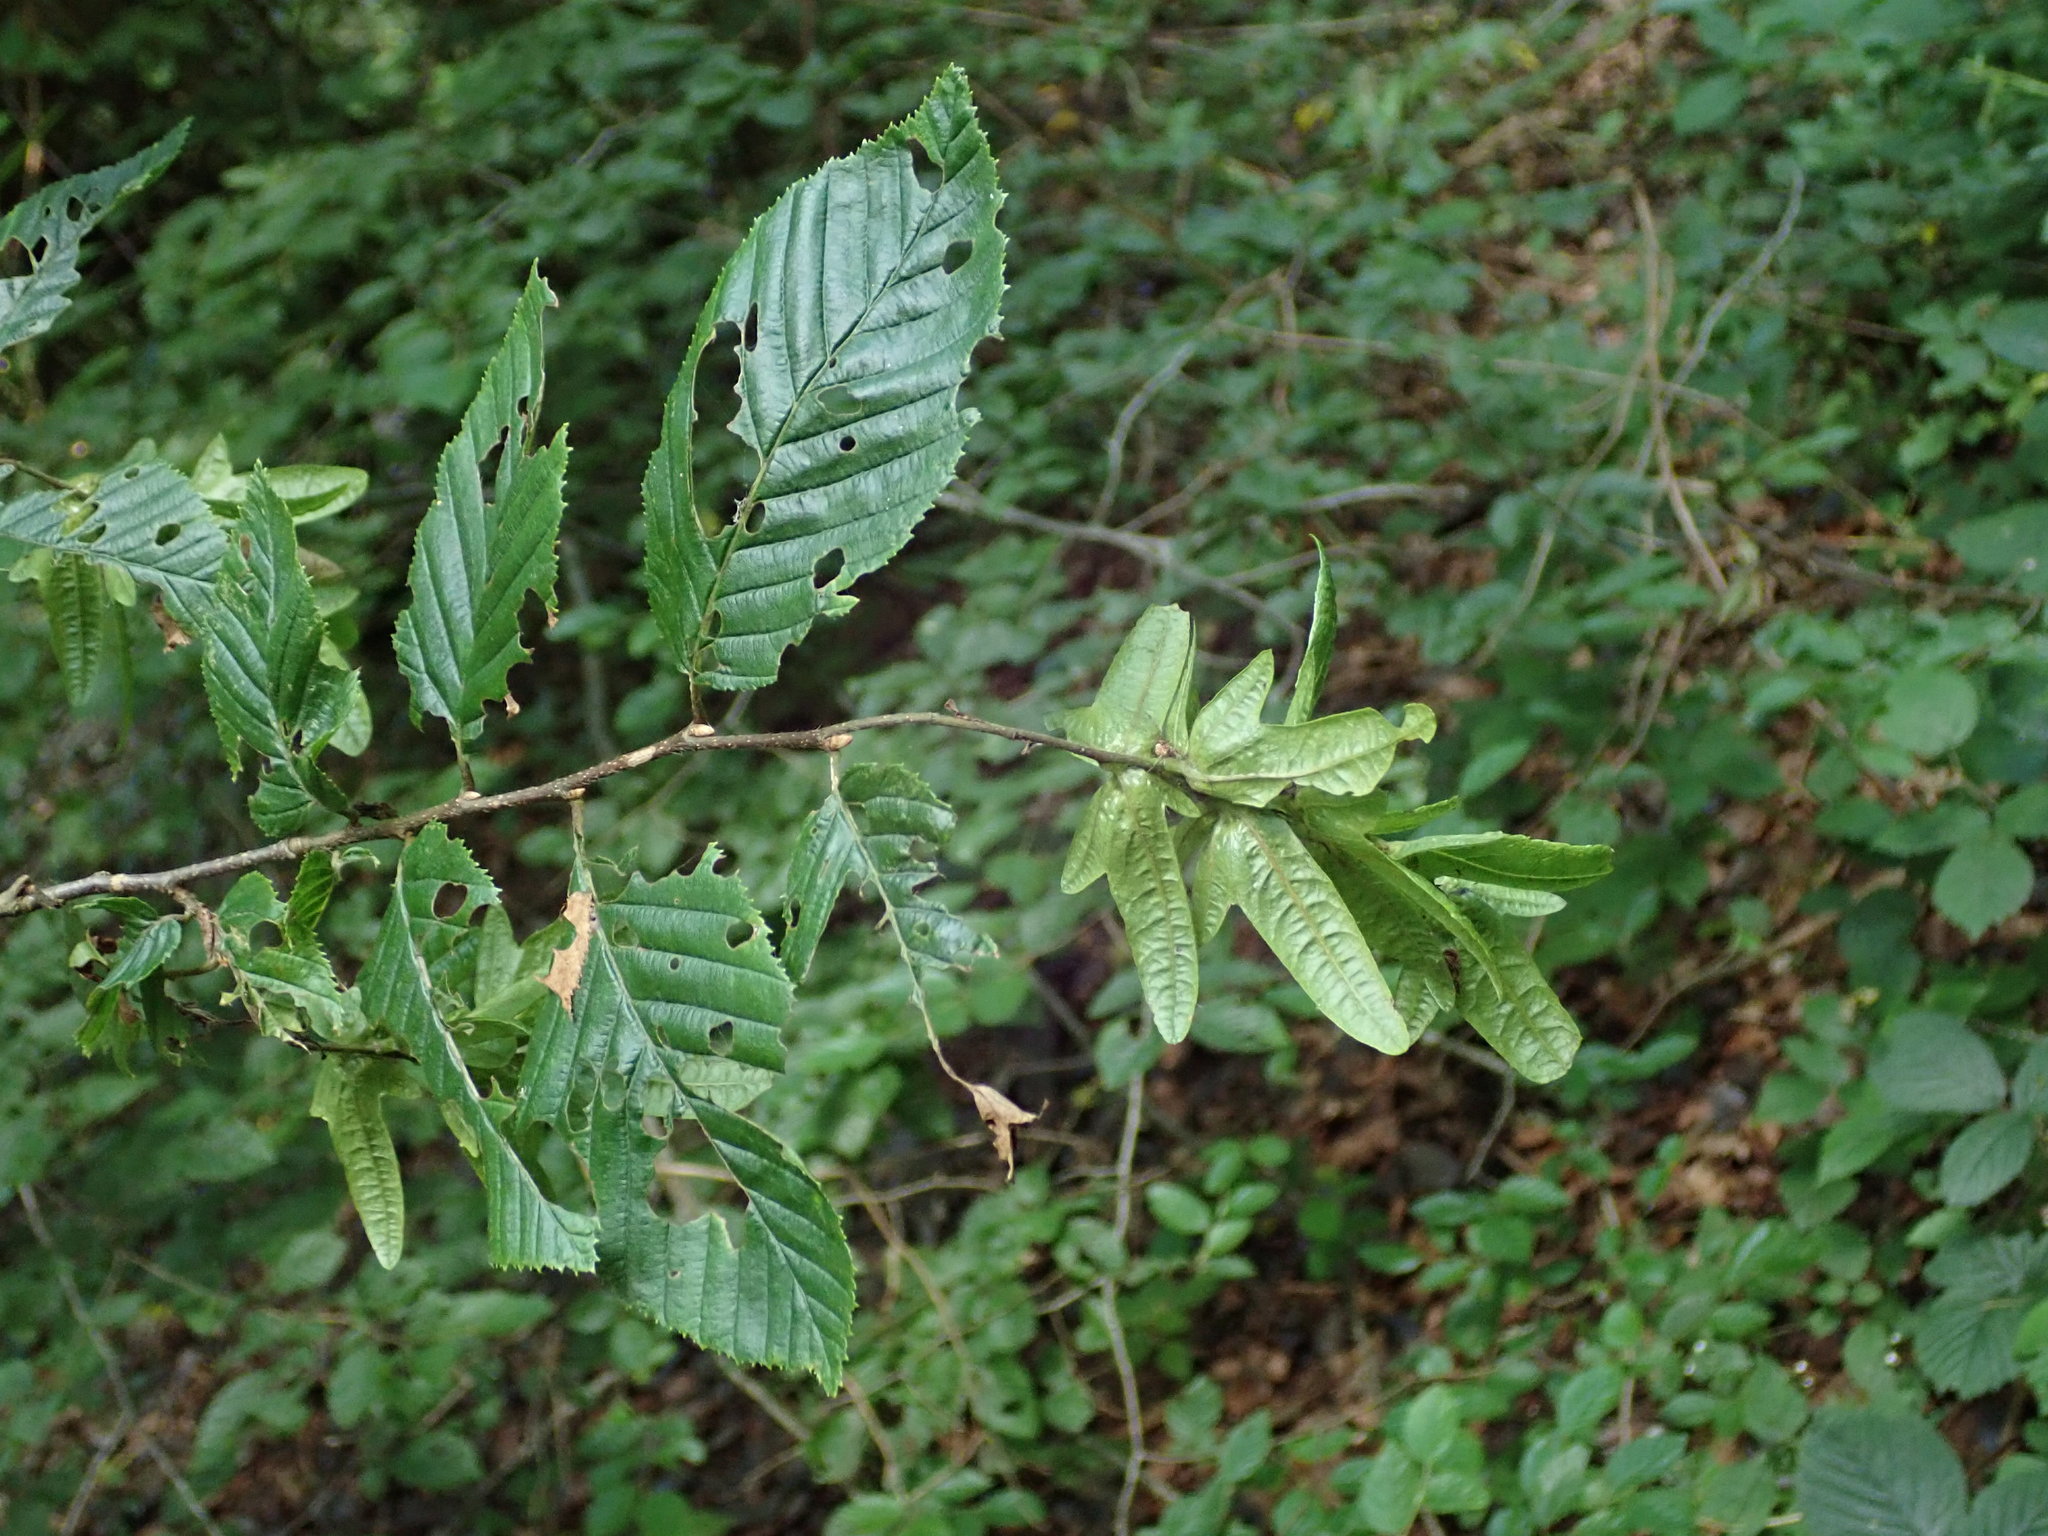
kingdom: Plantae
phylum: Tracheophyta
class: Magnoliopsida
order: Fagales
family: Betulaceae
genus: Carpinus
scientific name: Carpinus betulus
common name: Hornbeam
